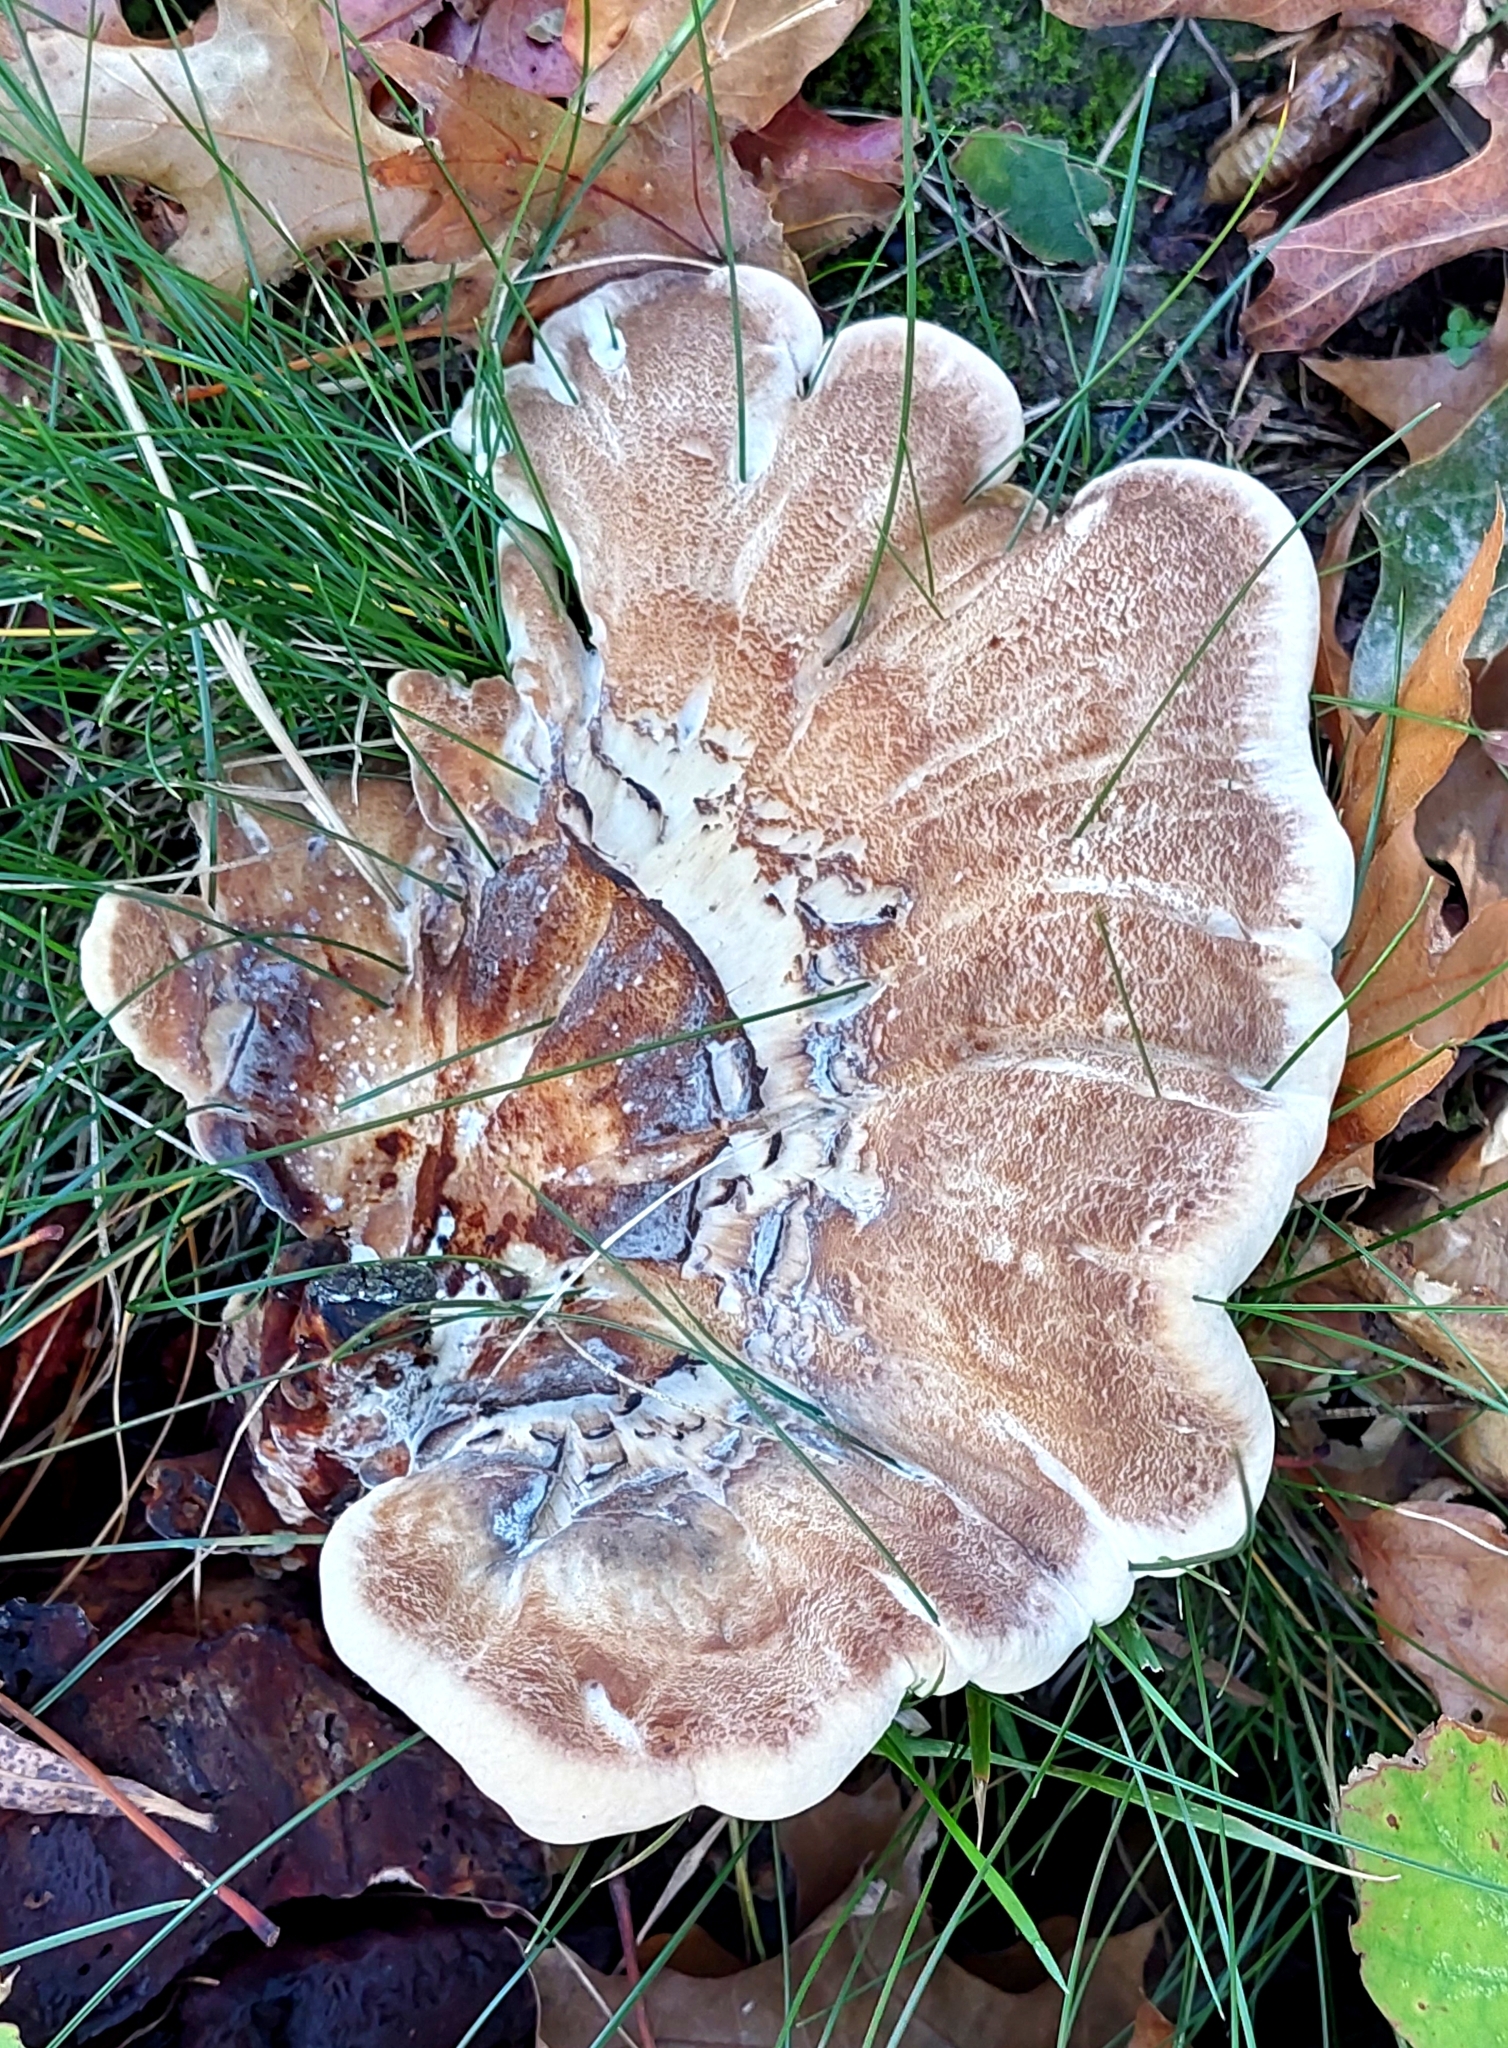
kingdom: Fungi
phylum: Basidiomycota
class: Agaricomycetes
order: Polyporales
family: Meripilaceae
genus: Meripilus
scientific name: Meripilus giganteus
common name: Giant polypore
